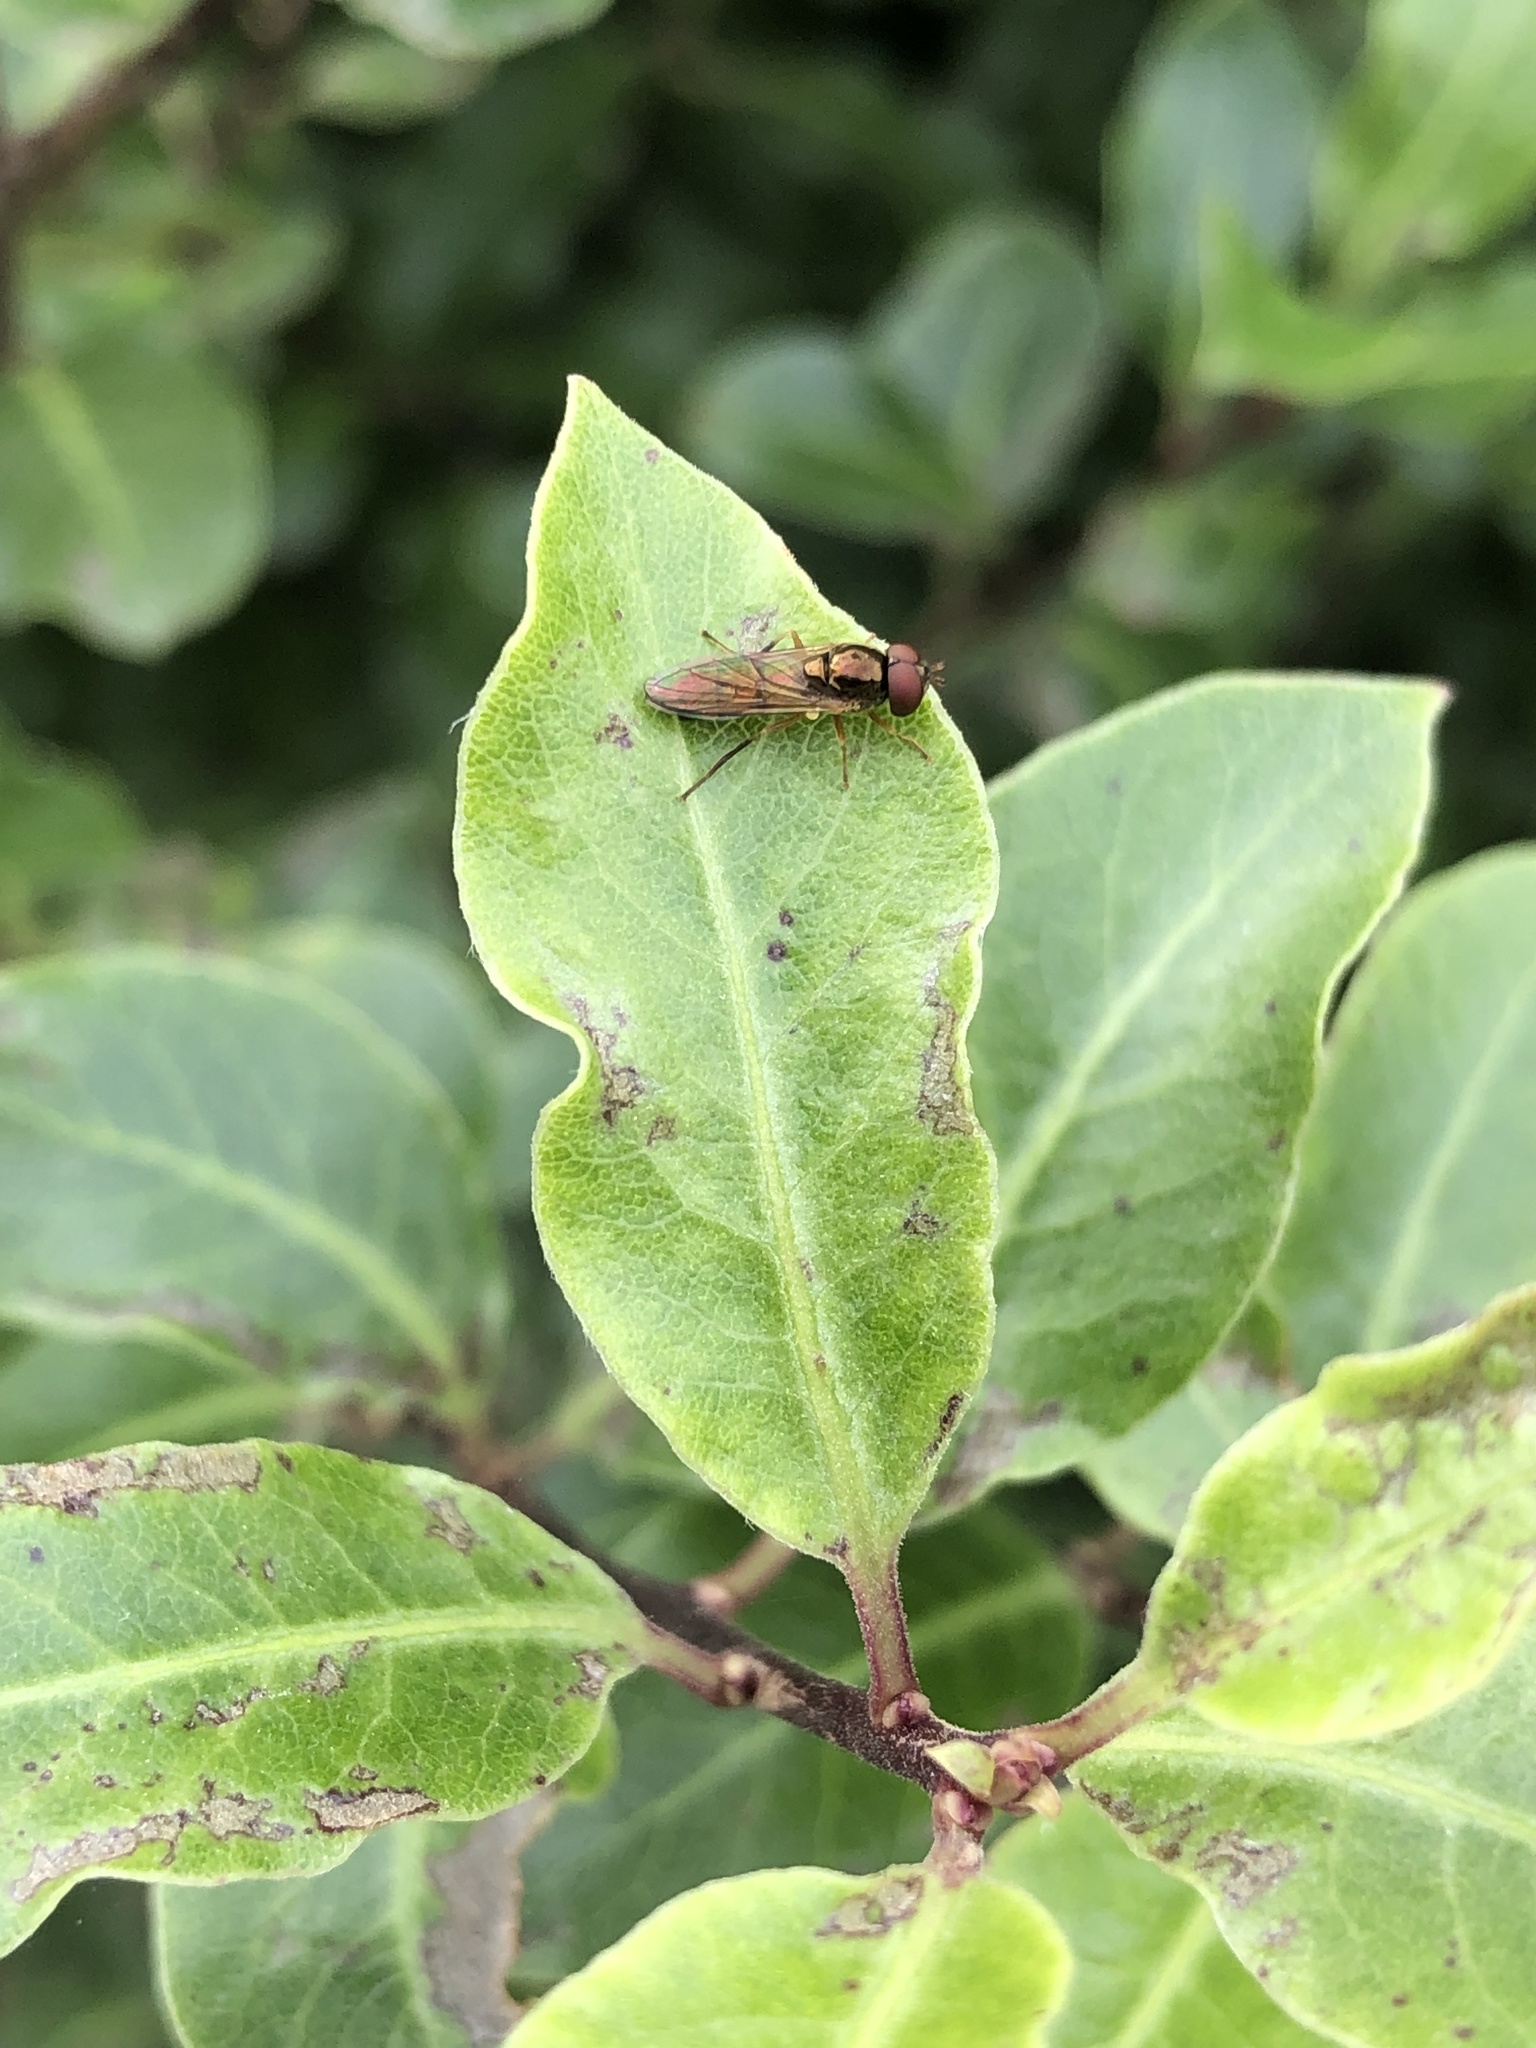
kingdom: Animalia
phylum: Arthropoda
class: Insecta
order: Diptera
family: Syrphidae
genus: Melanostoma
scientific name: Melanostoma fasciatum
